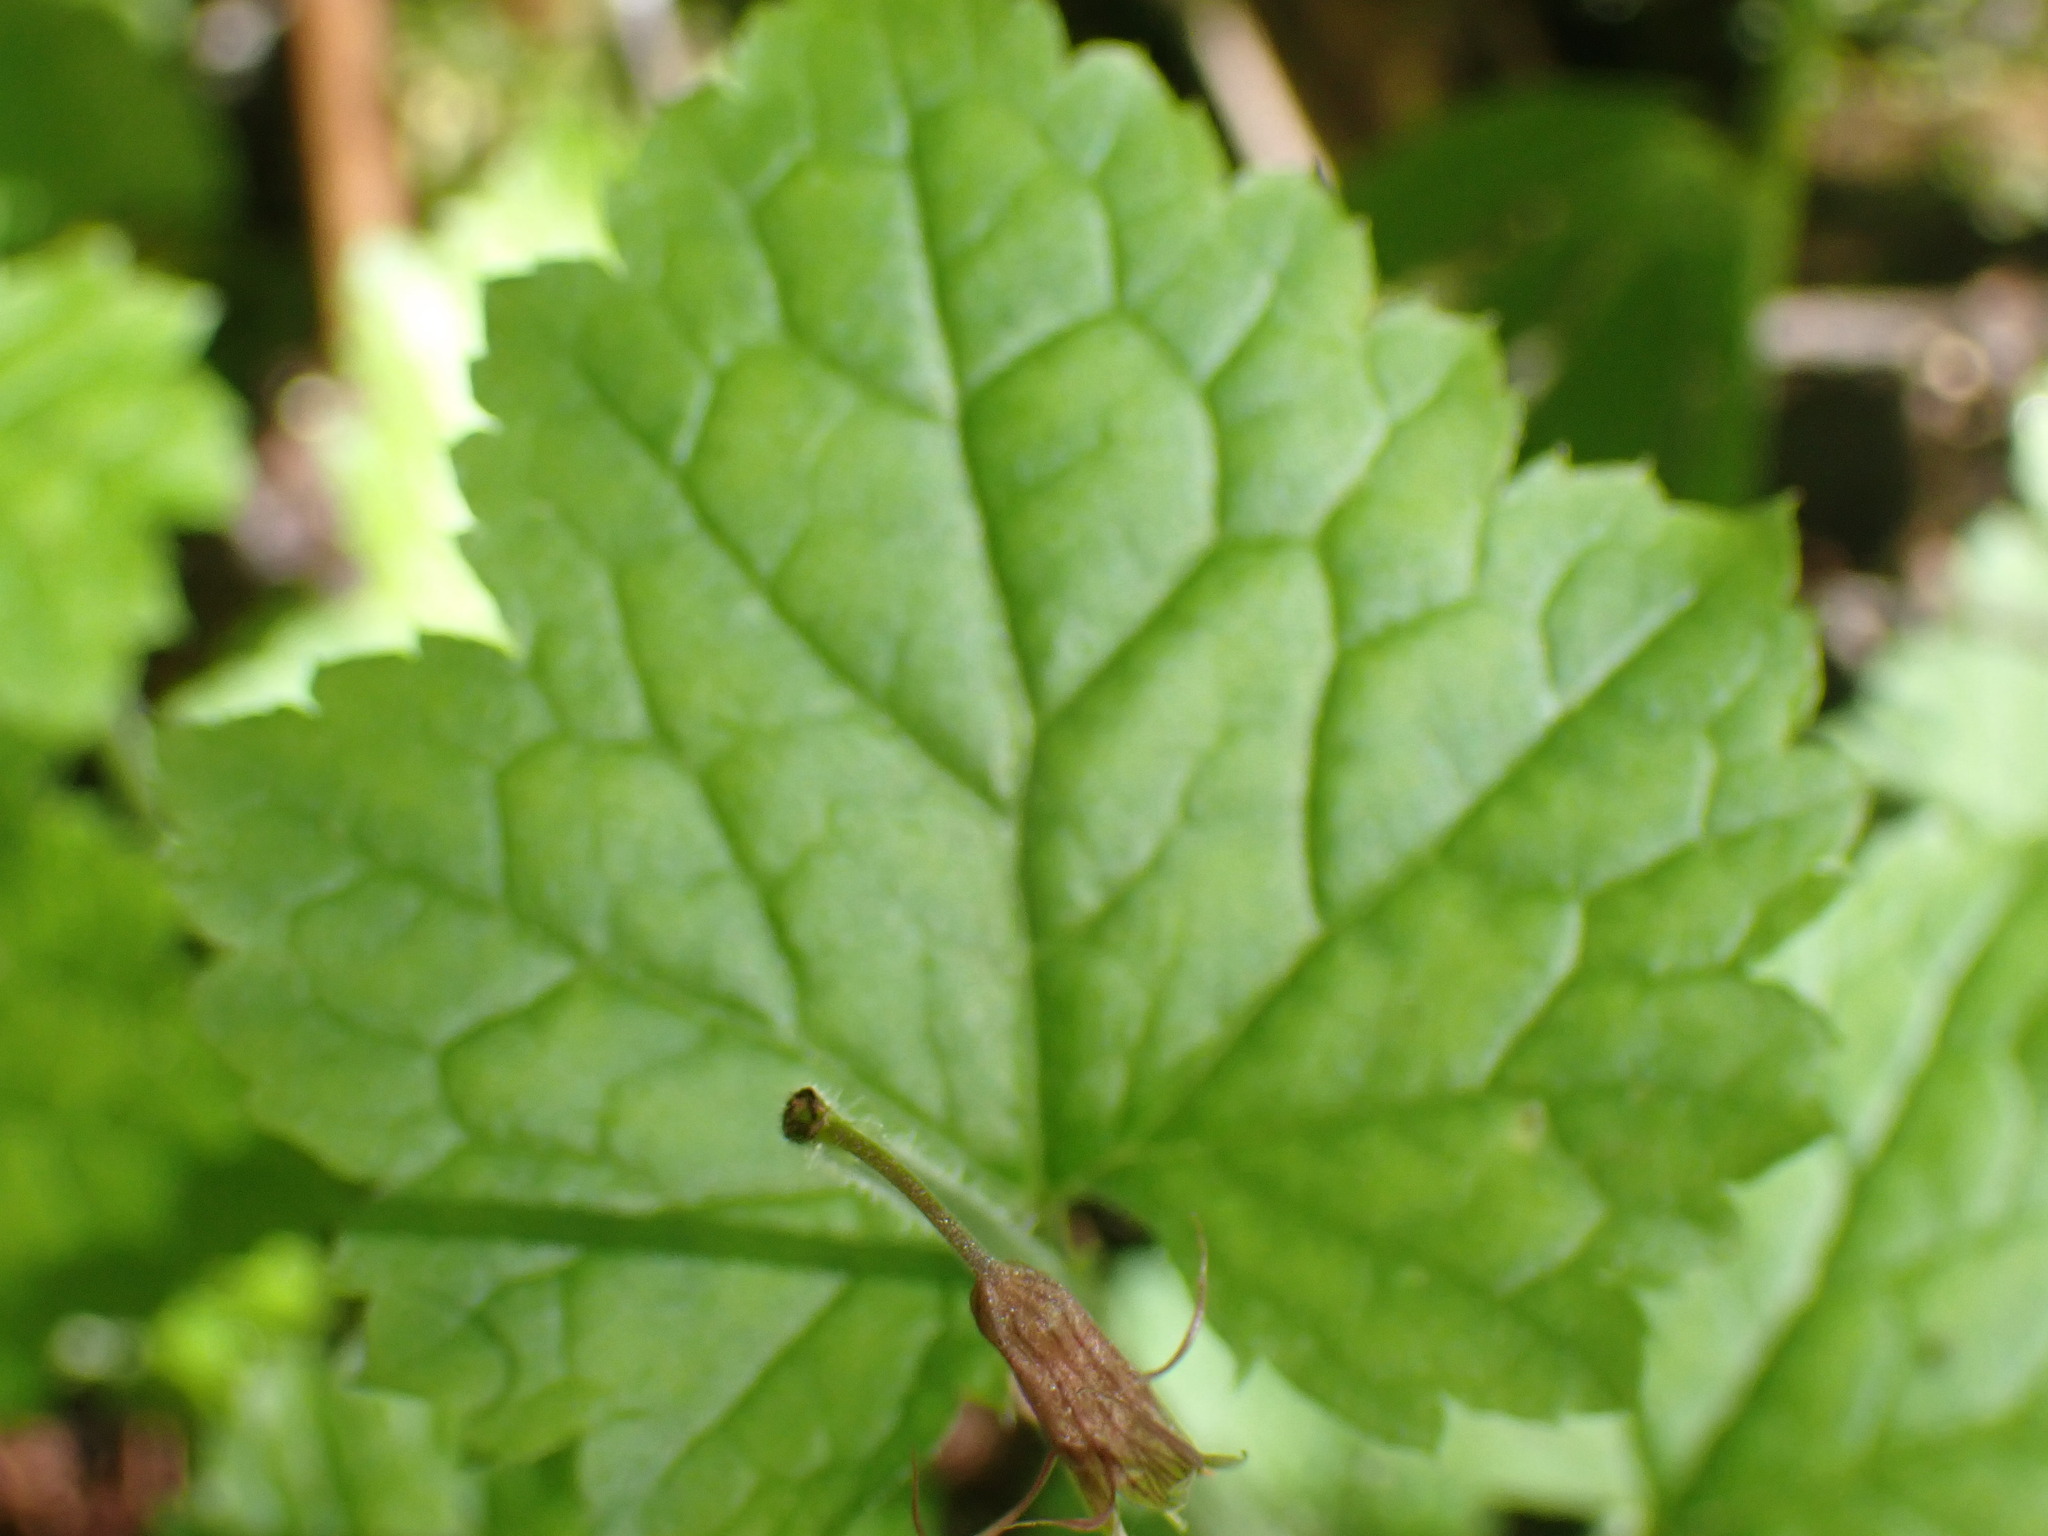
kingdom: Plantae
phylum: Tracheophyta
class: Magnoliopsida
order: Saxifragales
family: Saxifragaceae
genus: Tolmiea
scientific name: Tolmiea menziesii
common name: Pick-a-back-plant
